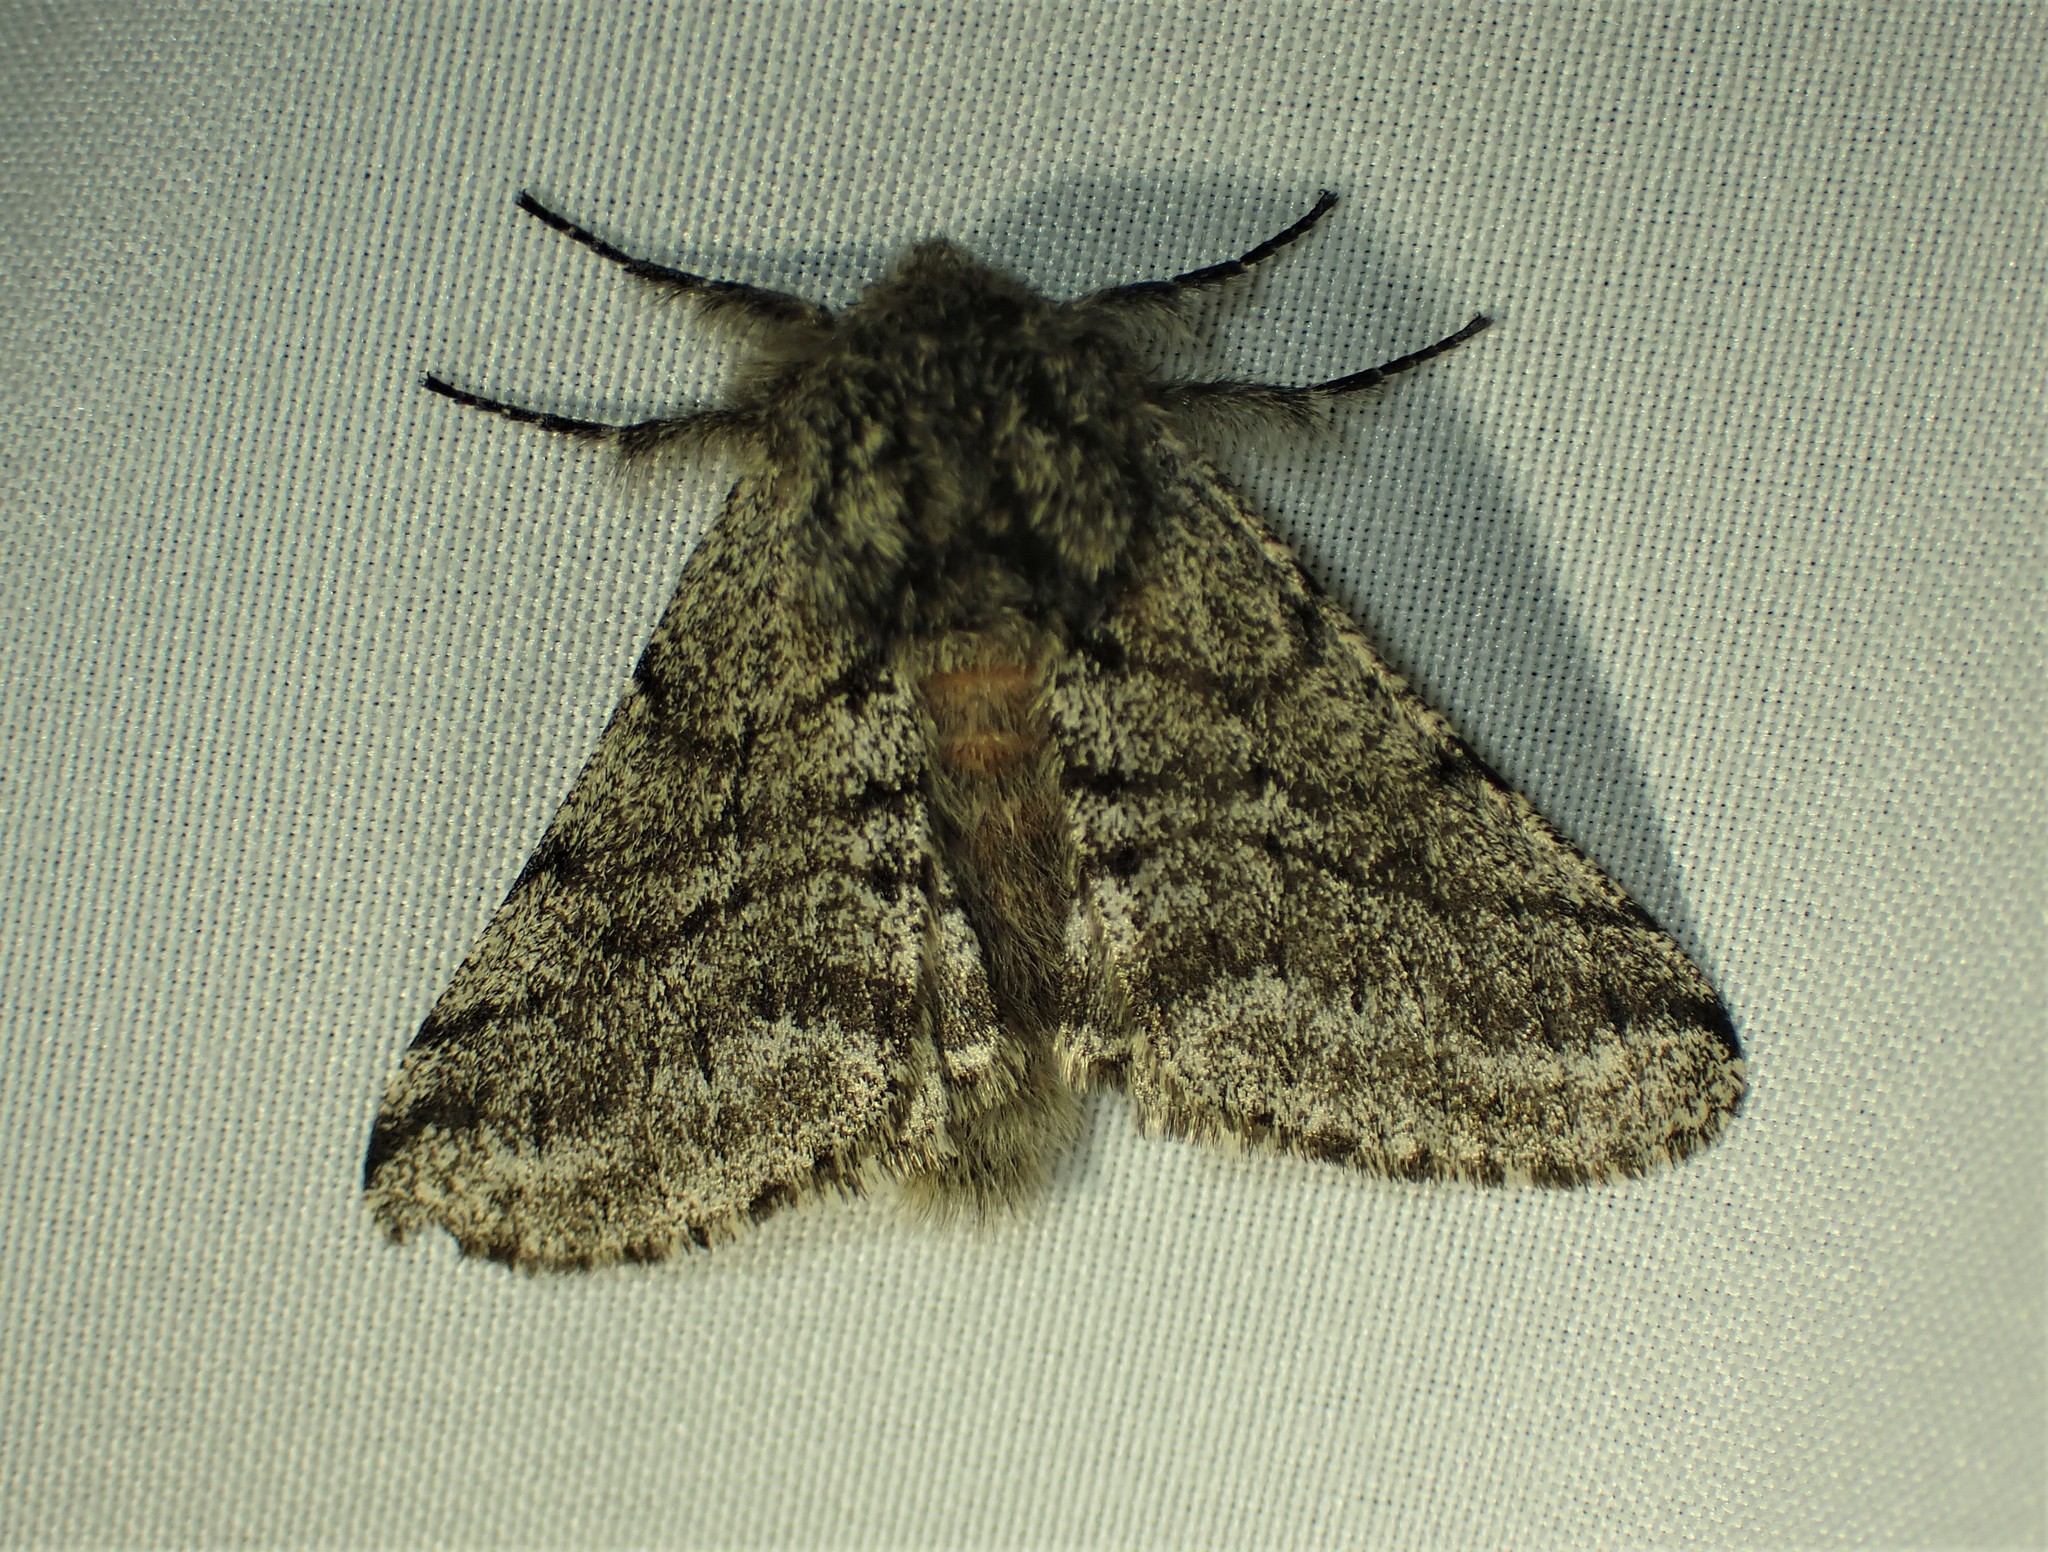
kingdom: Animalia
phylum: Arthropoda
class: Insecta
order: Lepidoptera
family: Geometridae
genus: Lycia
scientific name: Lycia ursaria
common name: Stout spanworm
